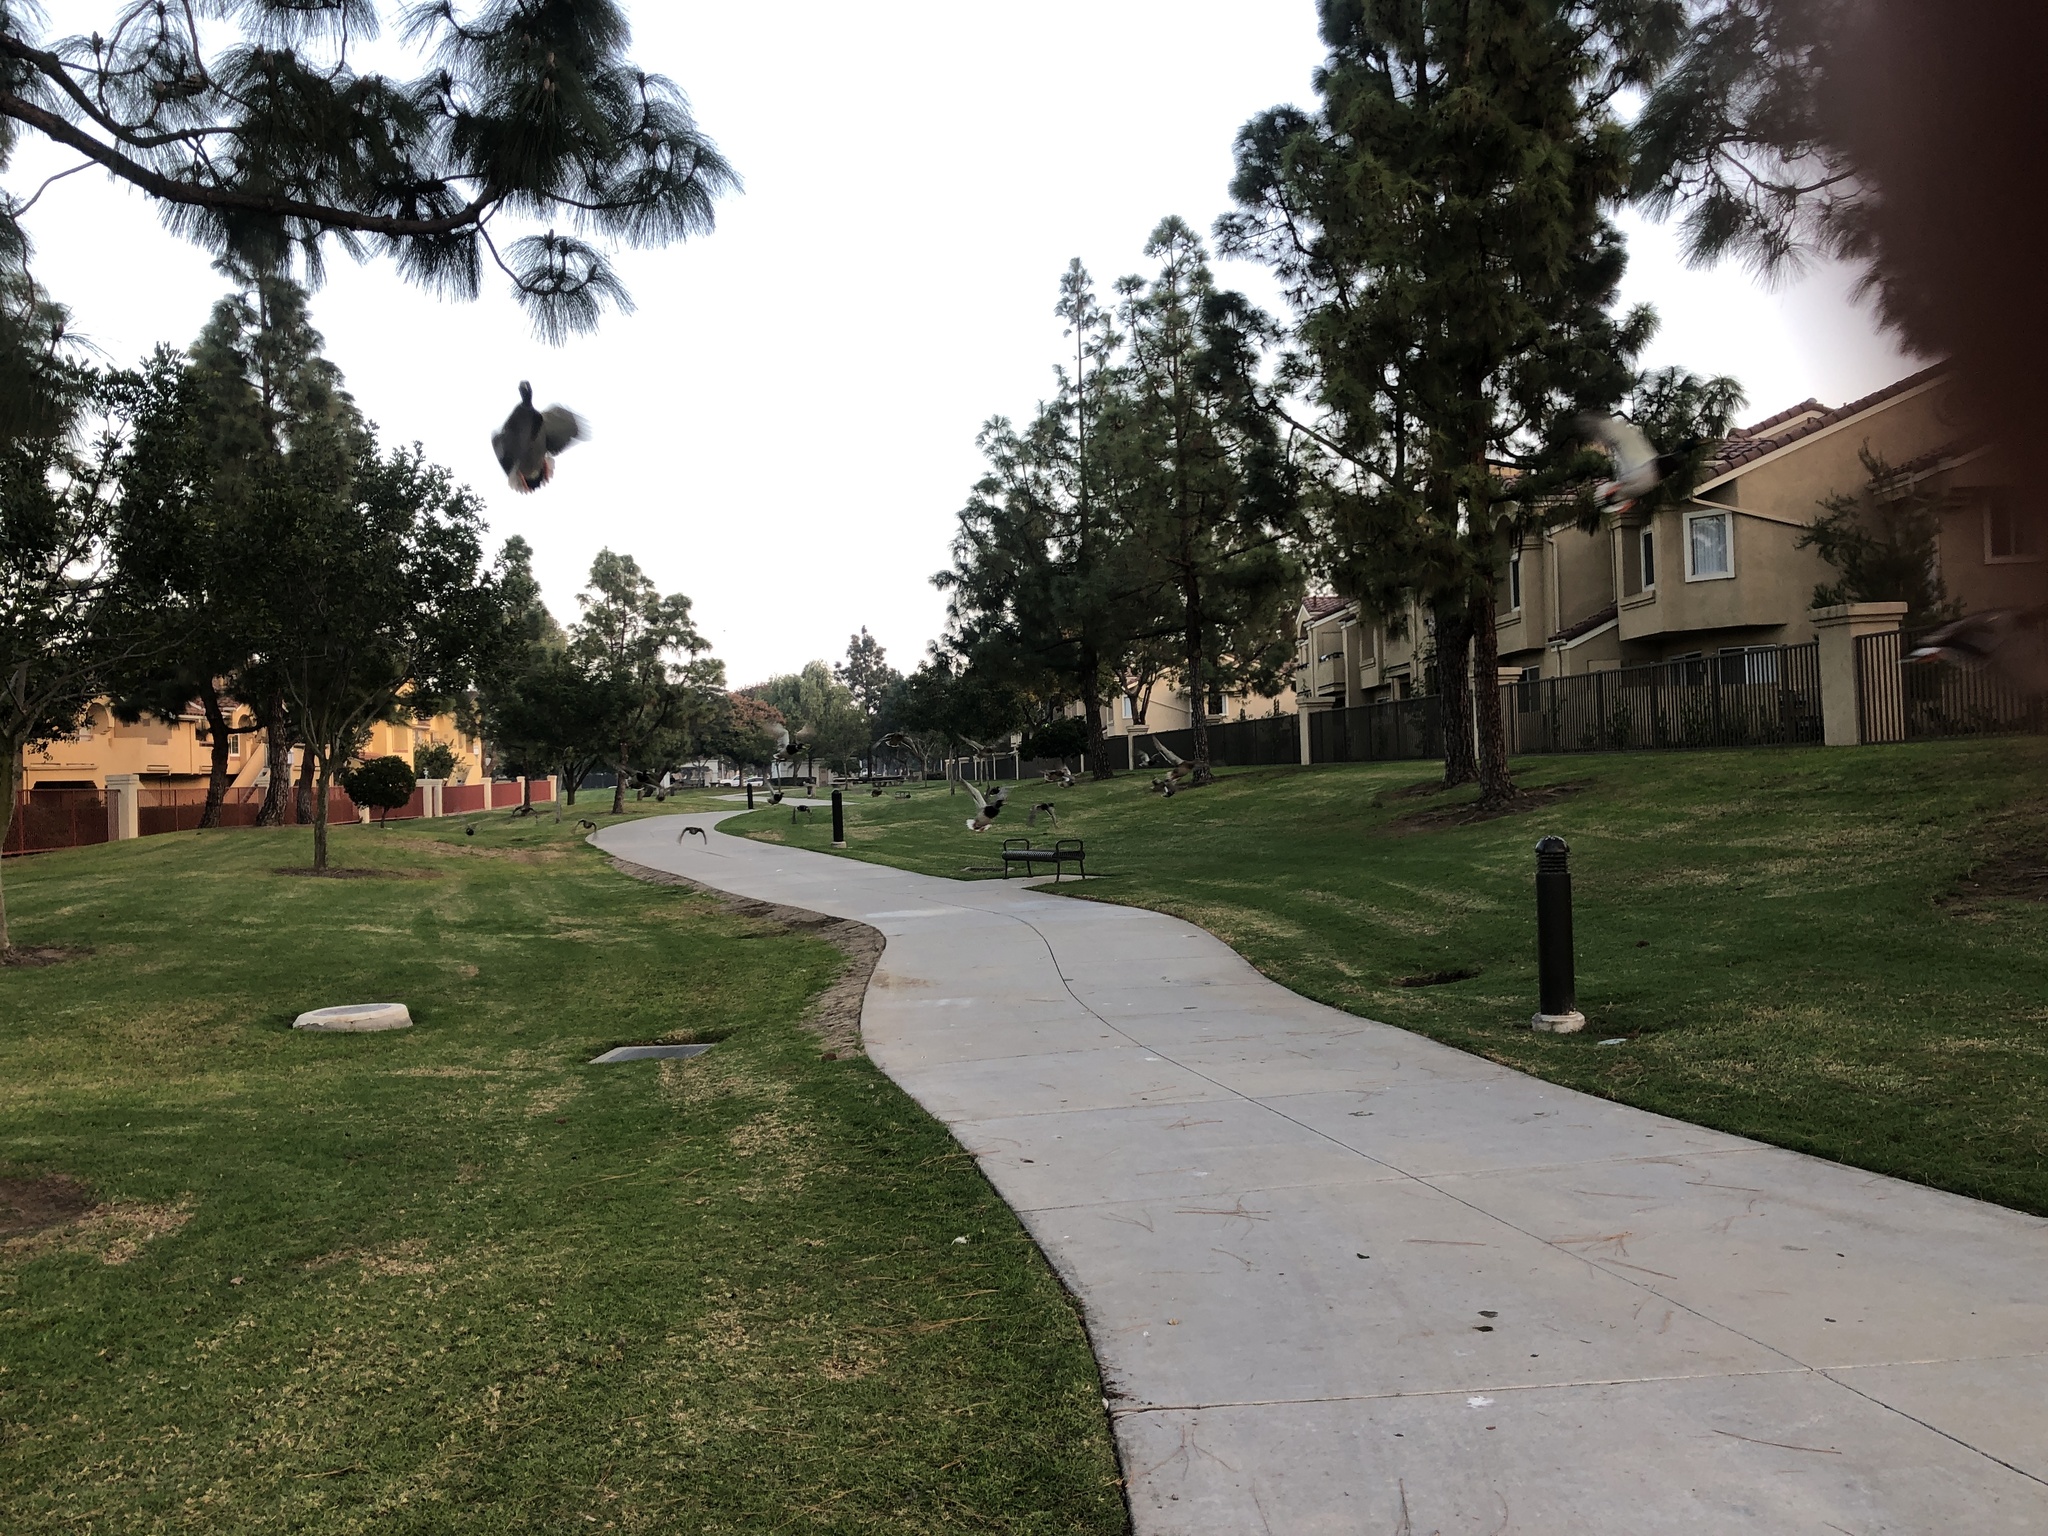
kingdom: Animalia
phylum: Chordata
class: Aves
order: Anseriformes
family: Anatidae
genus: Anas
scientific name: Anas platyrhynchos
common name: Mallard
